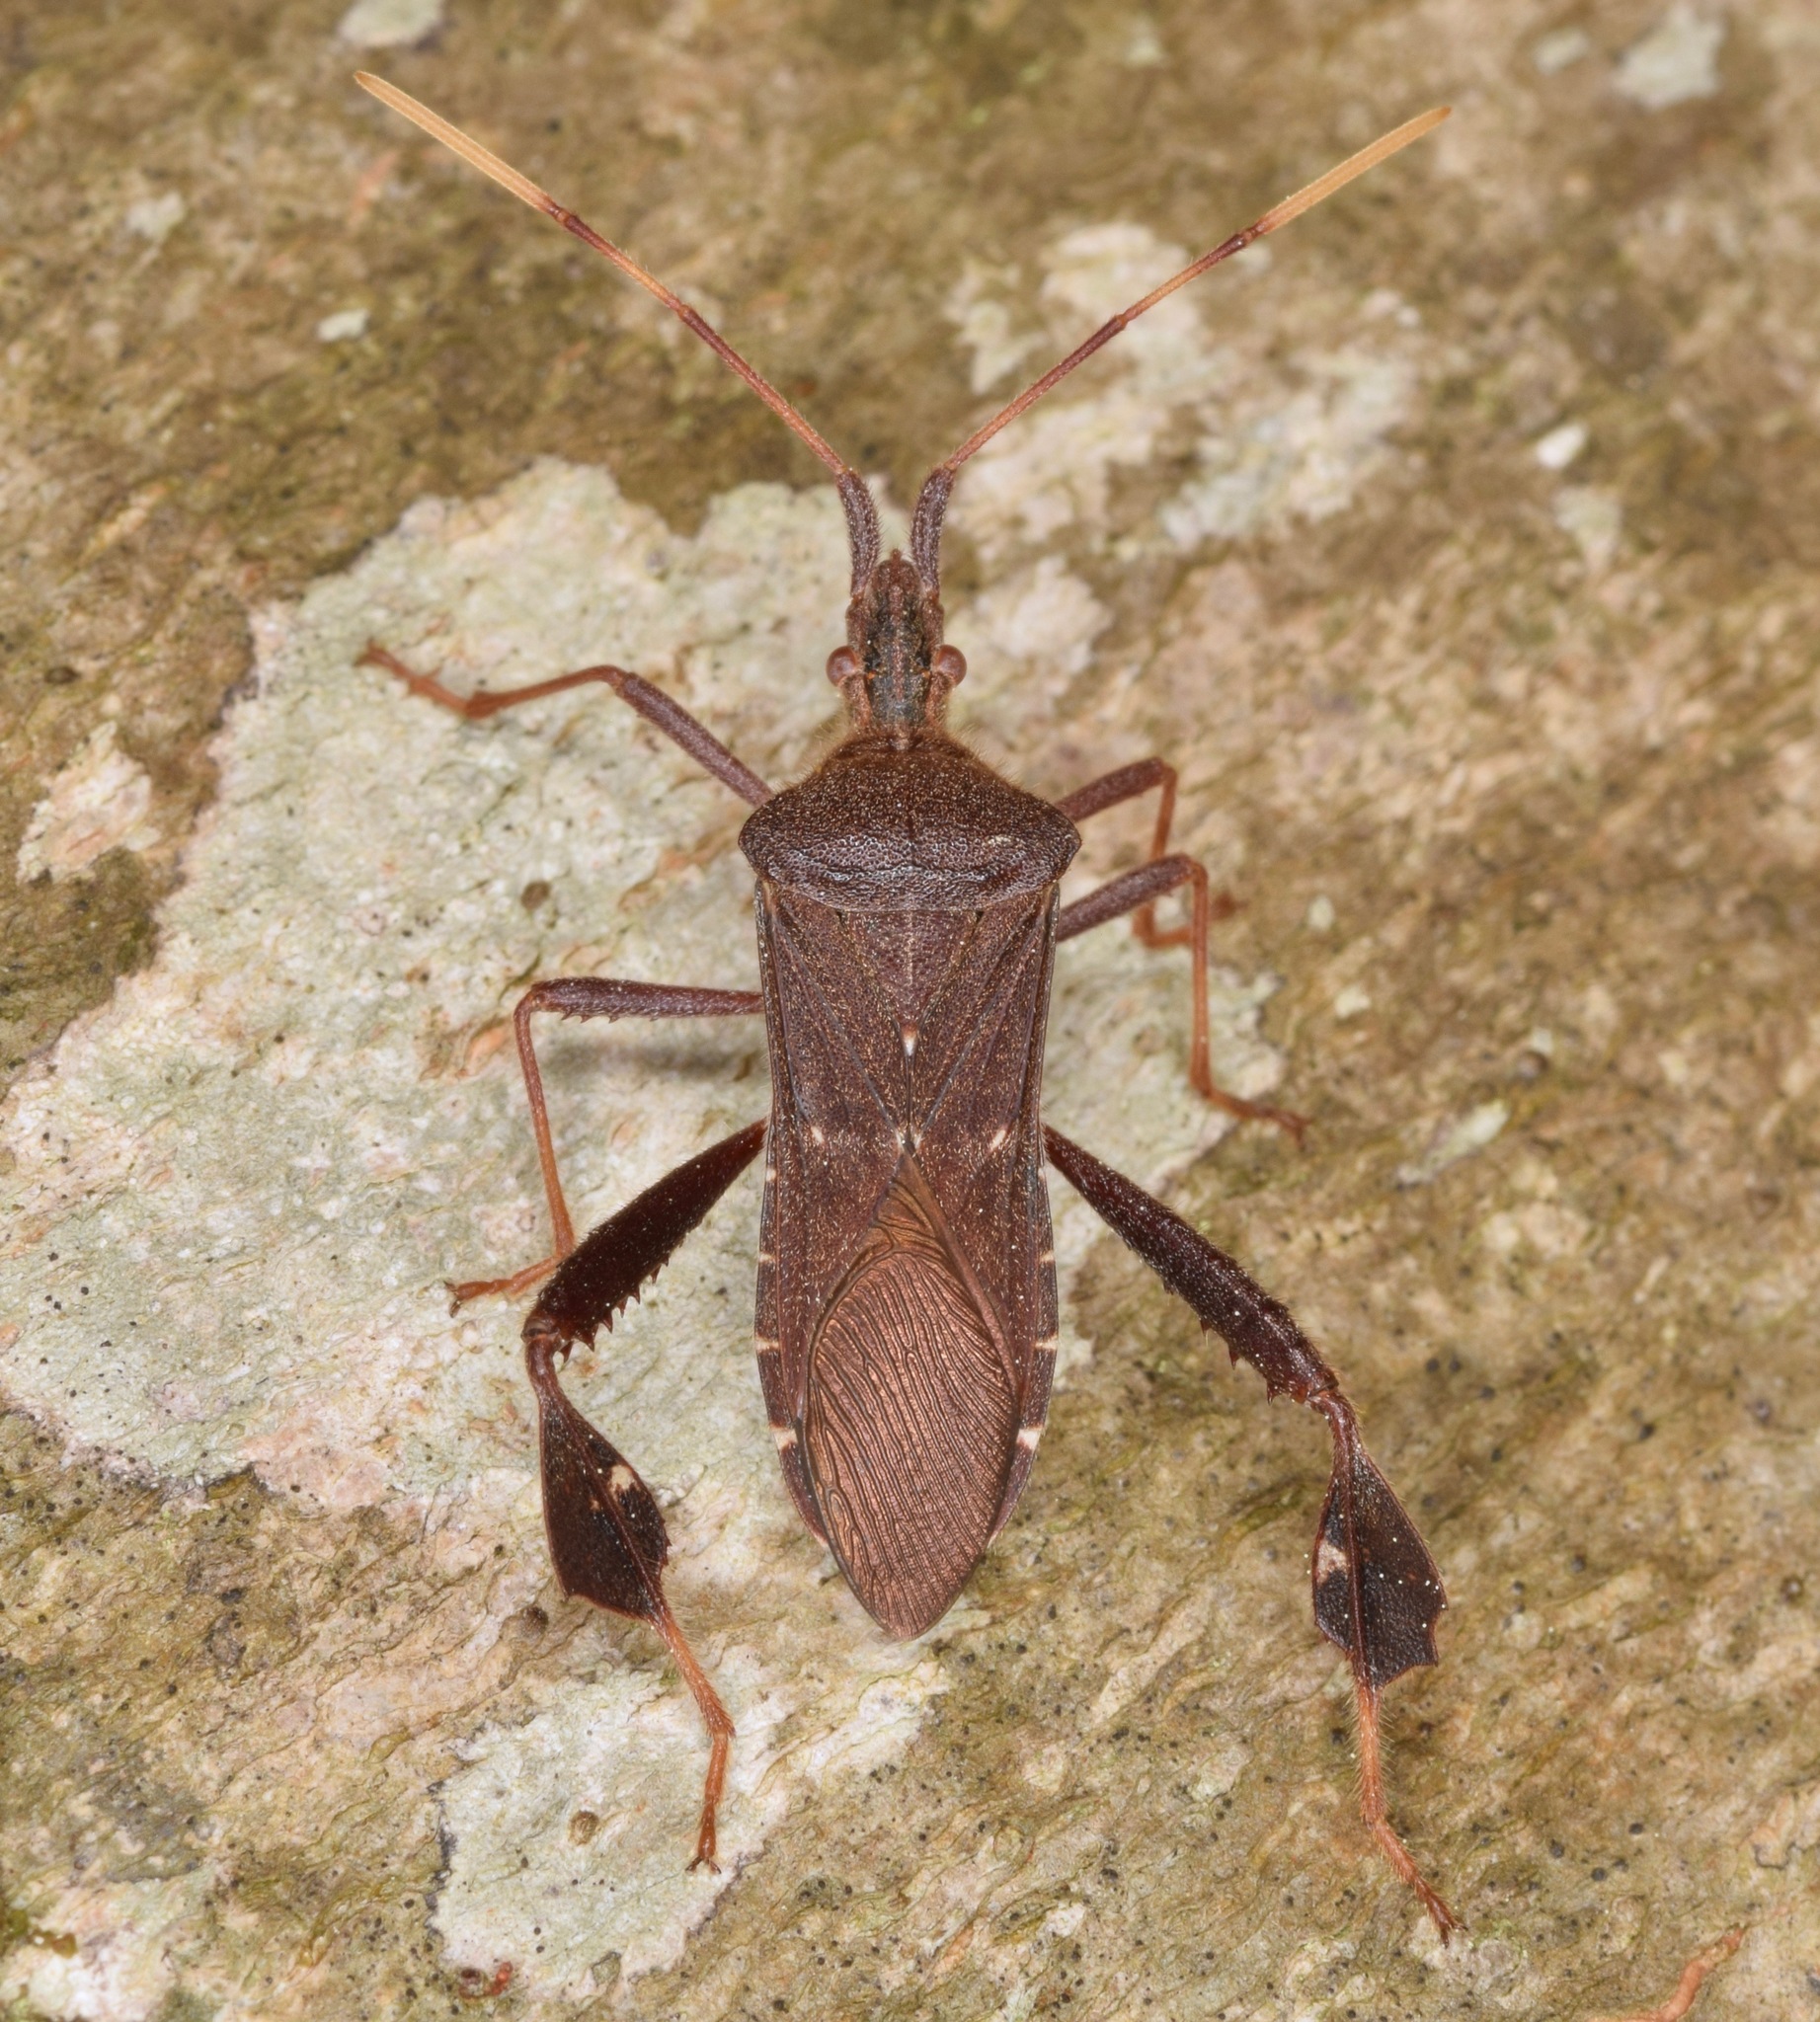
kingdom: Animalia
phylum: Arthropoda
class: Insecta
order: Hemiptera
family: Coreidae
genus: Leptoglossus
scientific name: Leptoglossus oppositus
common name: Northern leaf-footed bug
